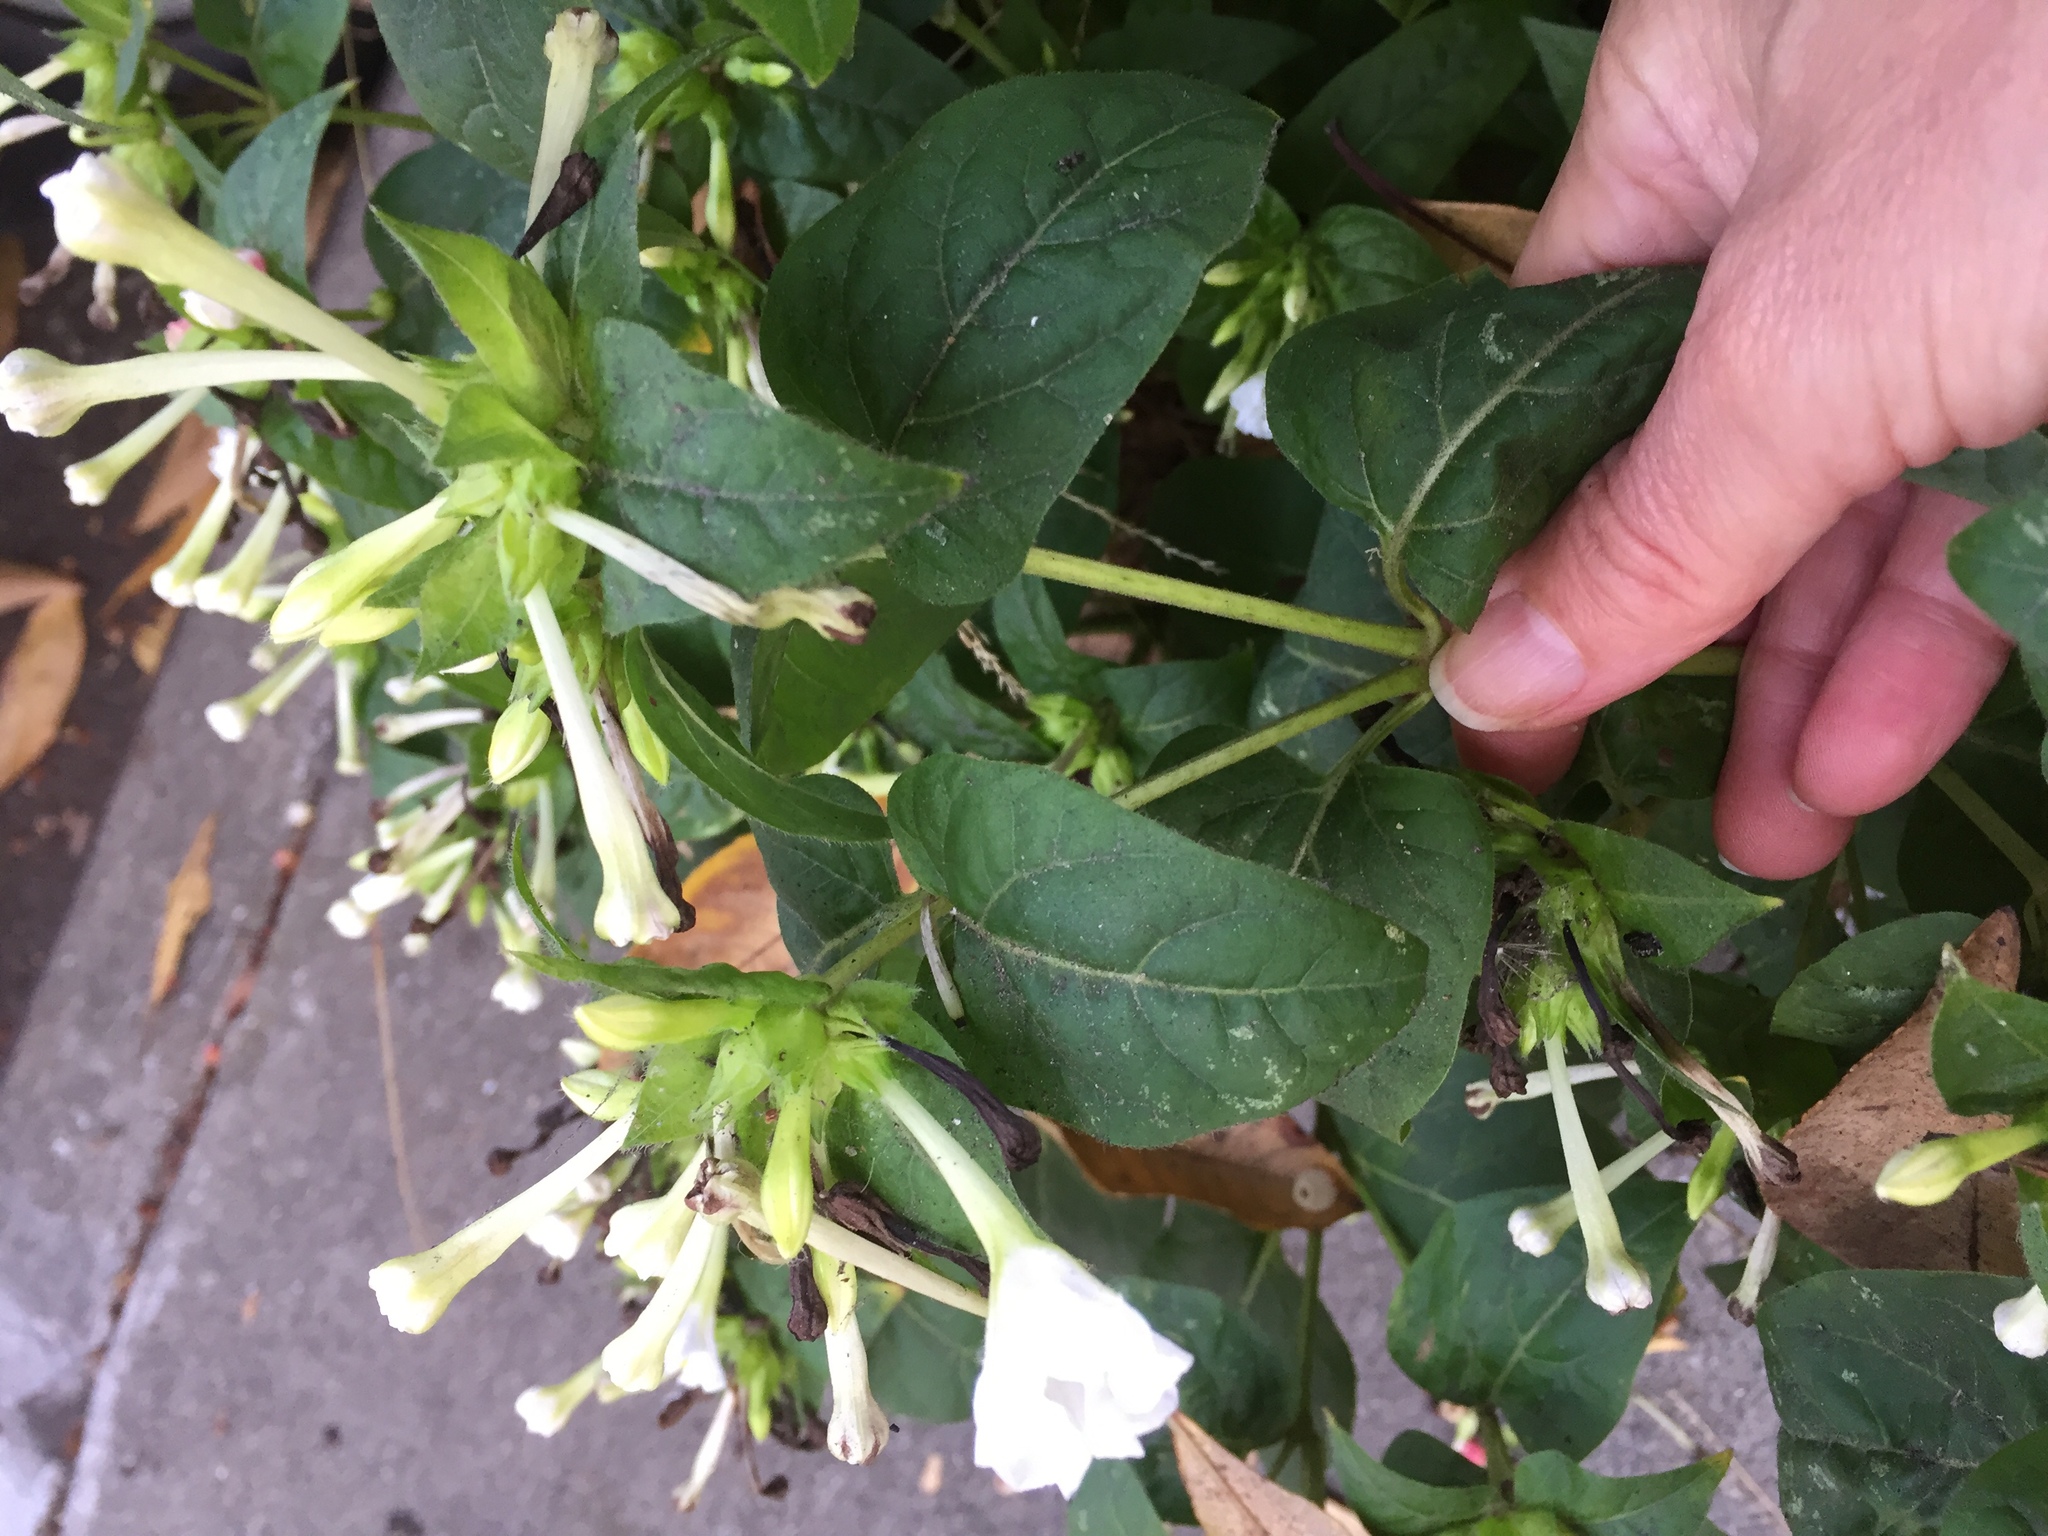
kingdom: Plantae
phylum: Tracheophyta
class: Magnoliopsida
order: Caryophyllales
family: Nyctaginaceae
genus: Mirabilis
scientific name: Mirabilis jalapa
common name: Marvel-of-peru
